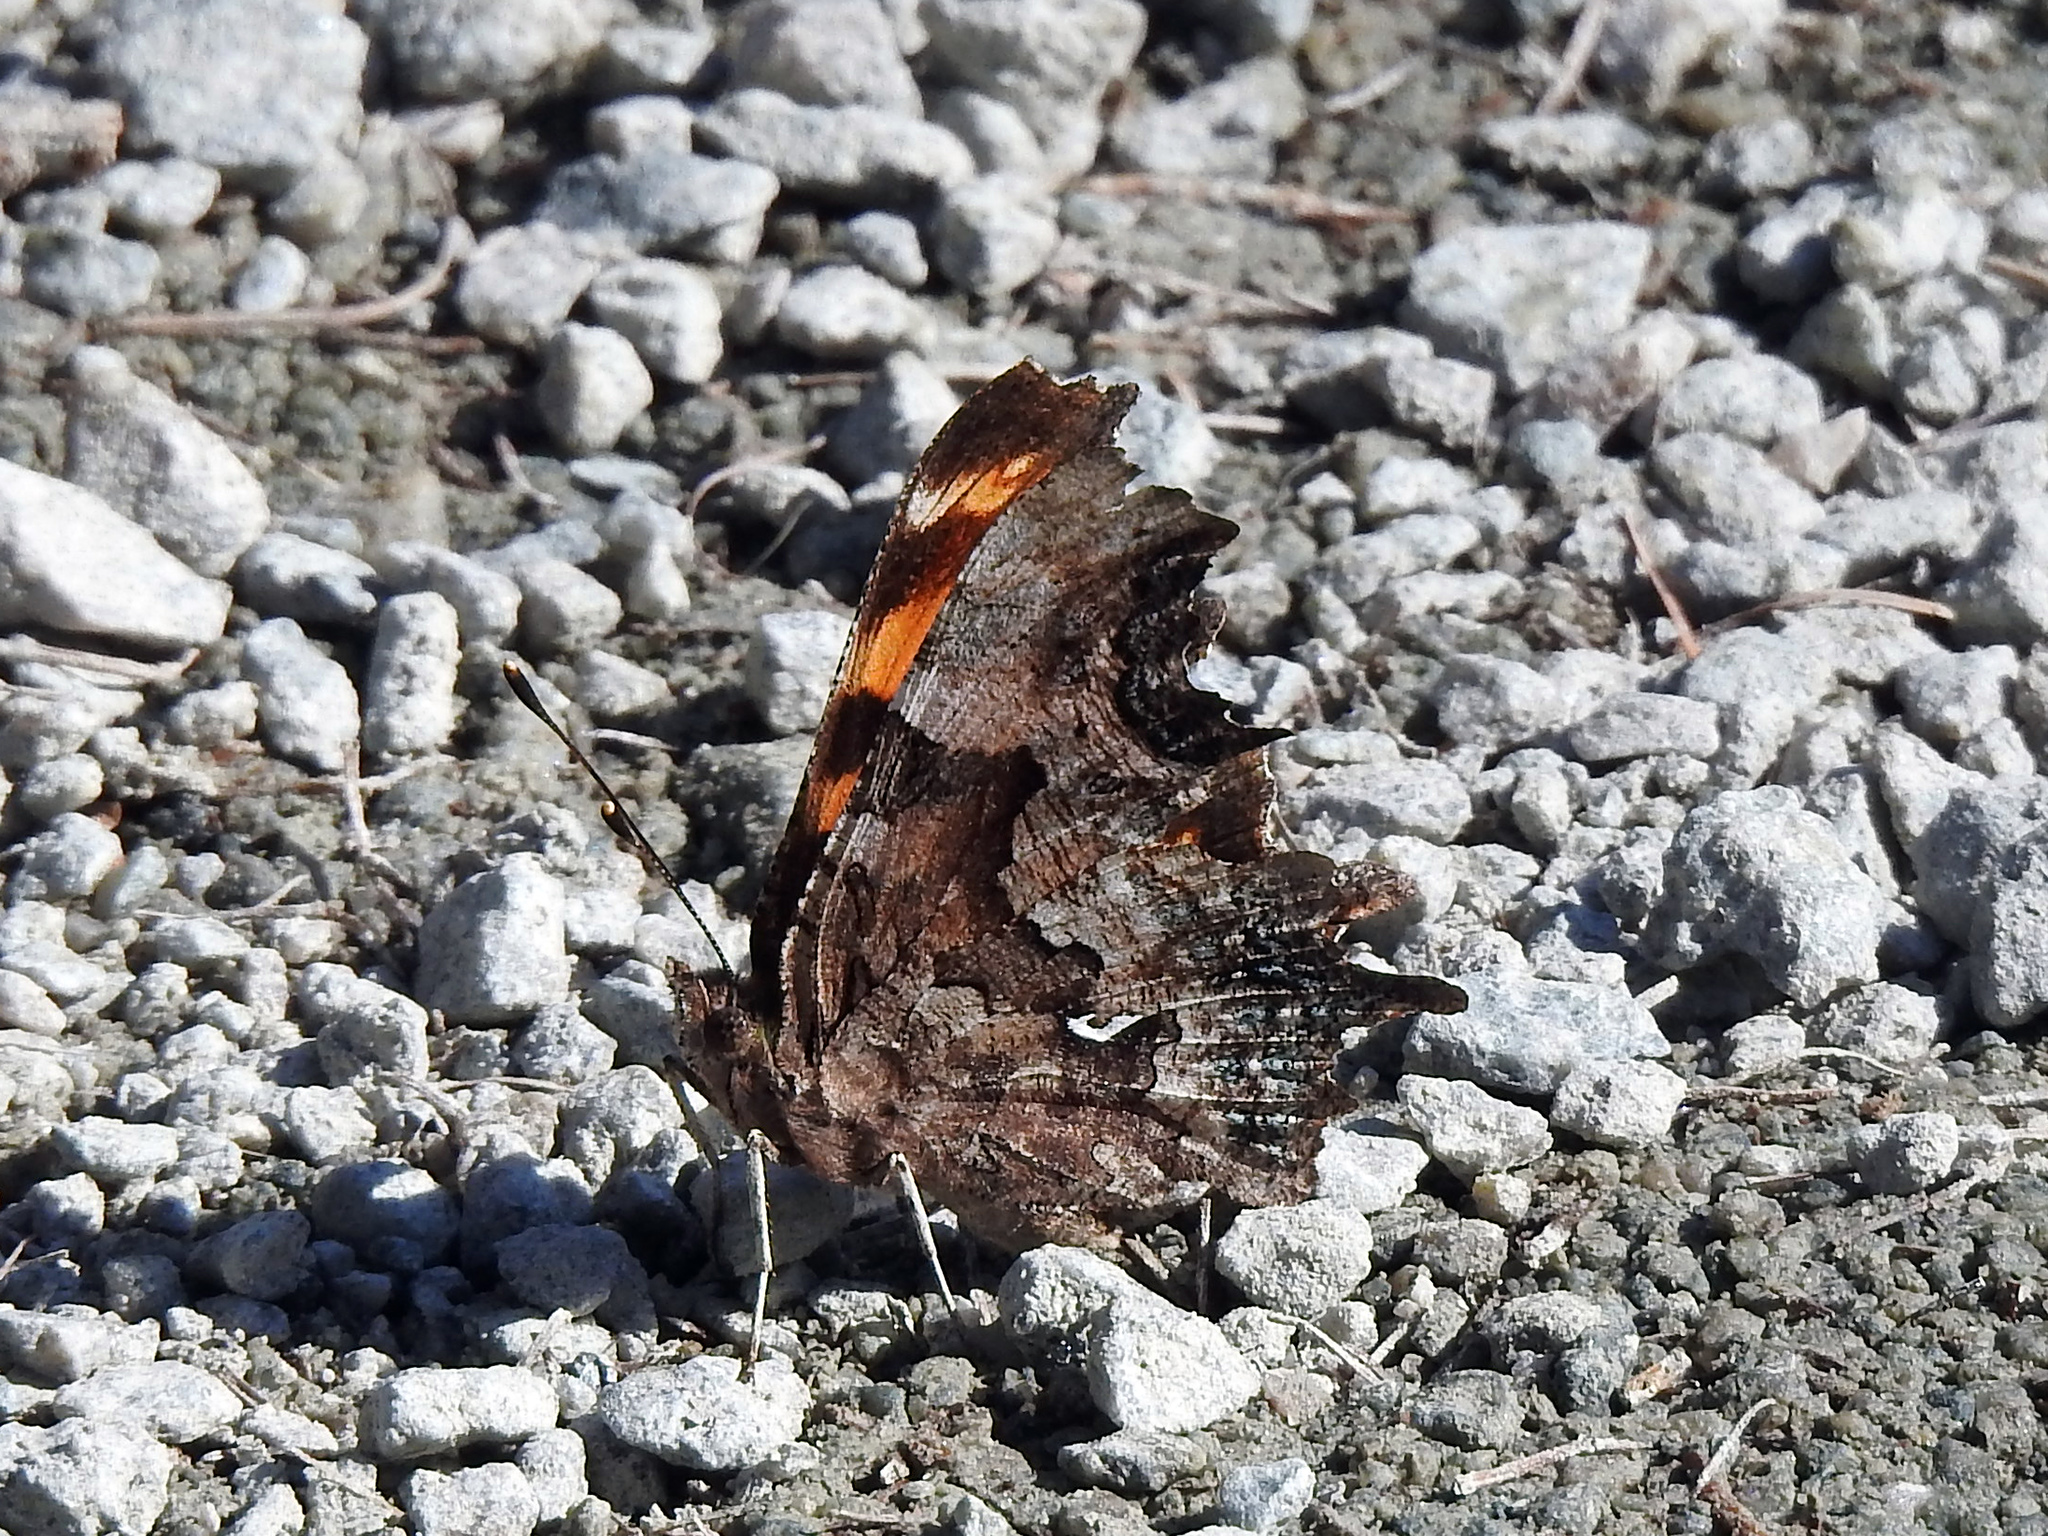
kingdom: Animalia
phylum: Arthropoda
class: Insecta
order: Lepidoptera
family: Nymphalidae
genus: Polygonia
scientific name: Polygonia faunus
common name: Green comma
